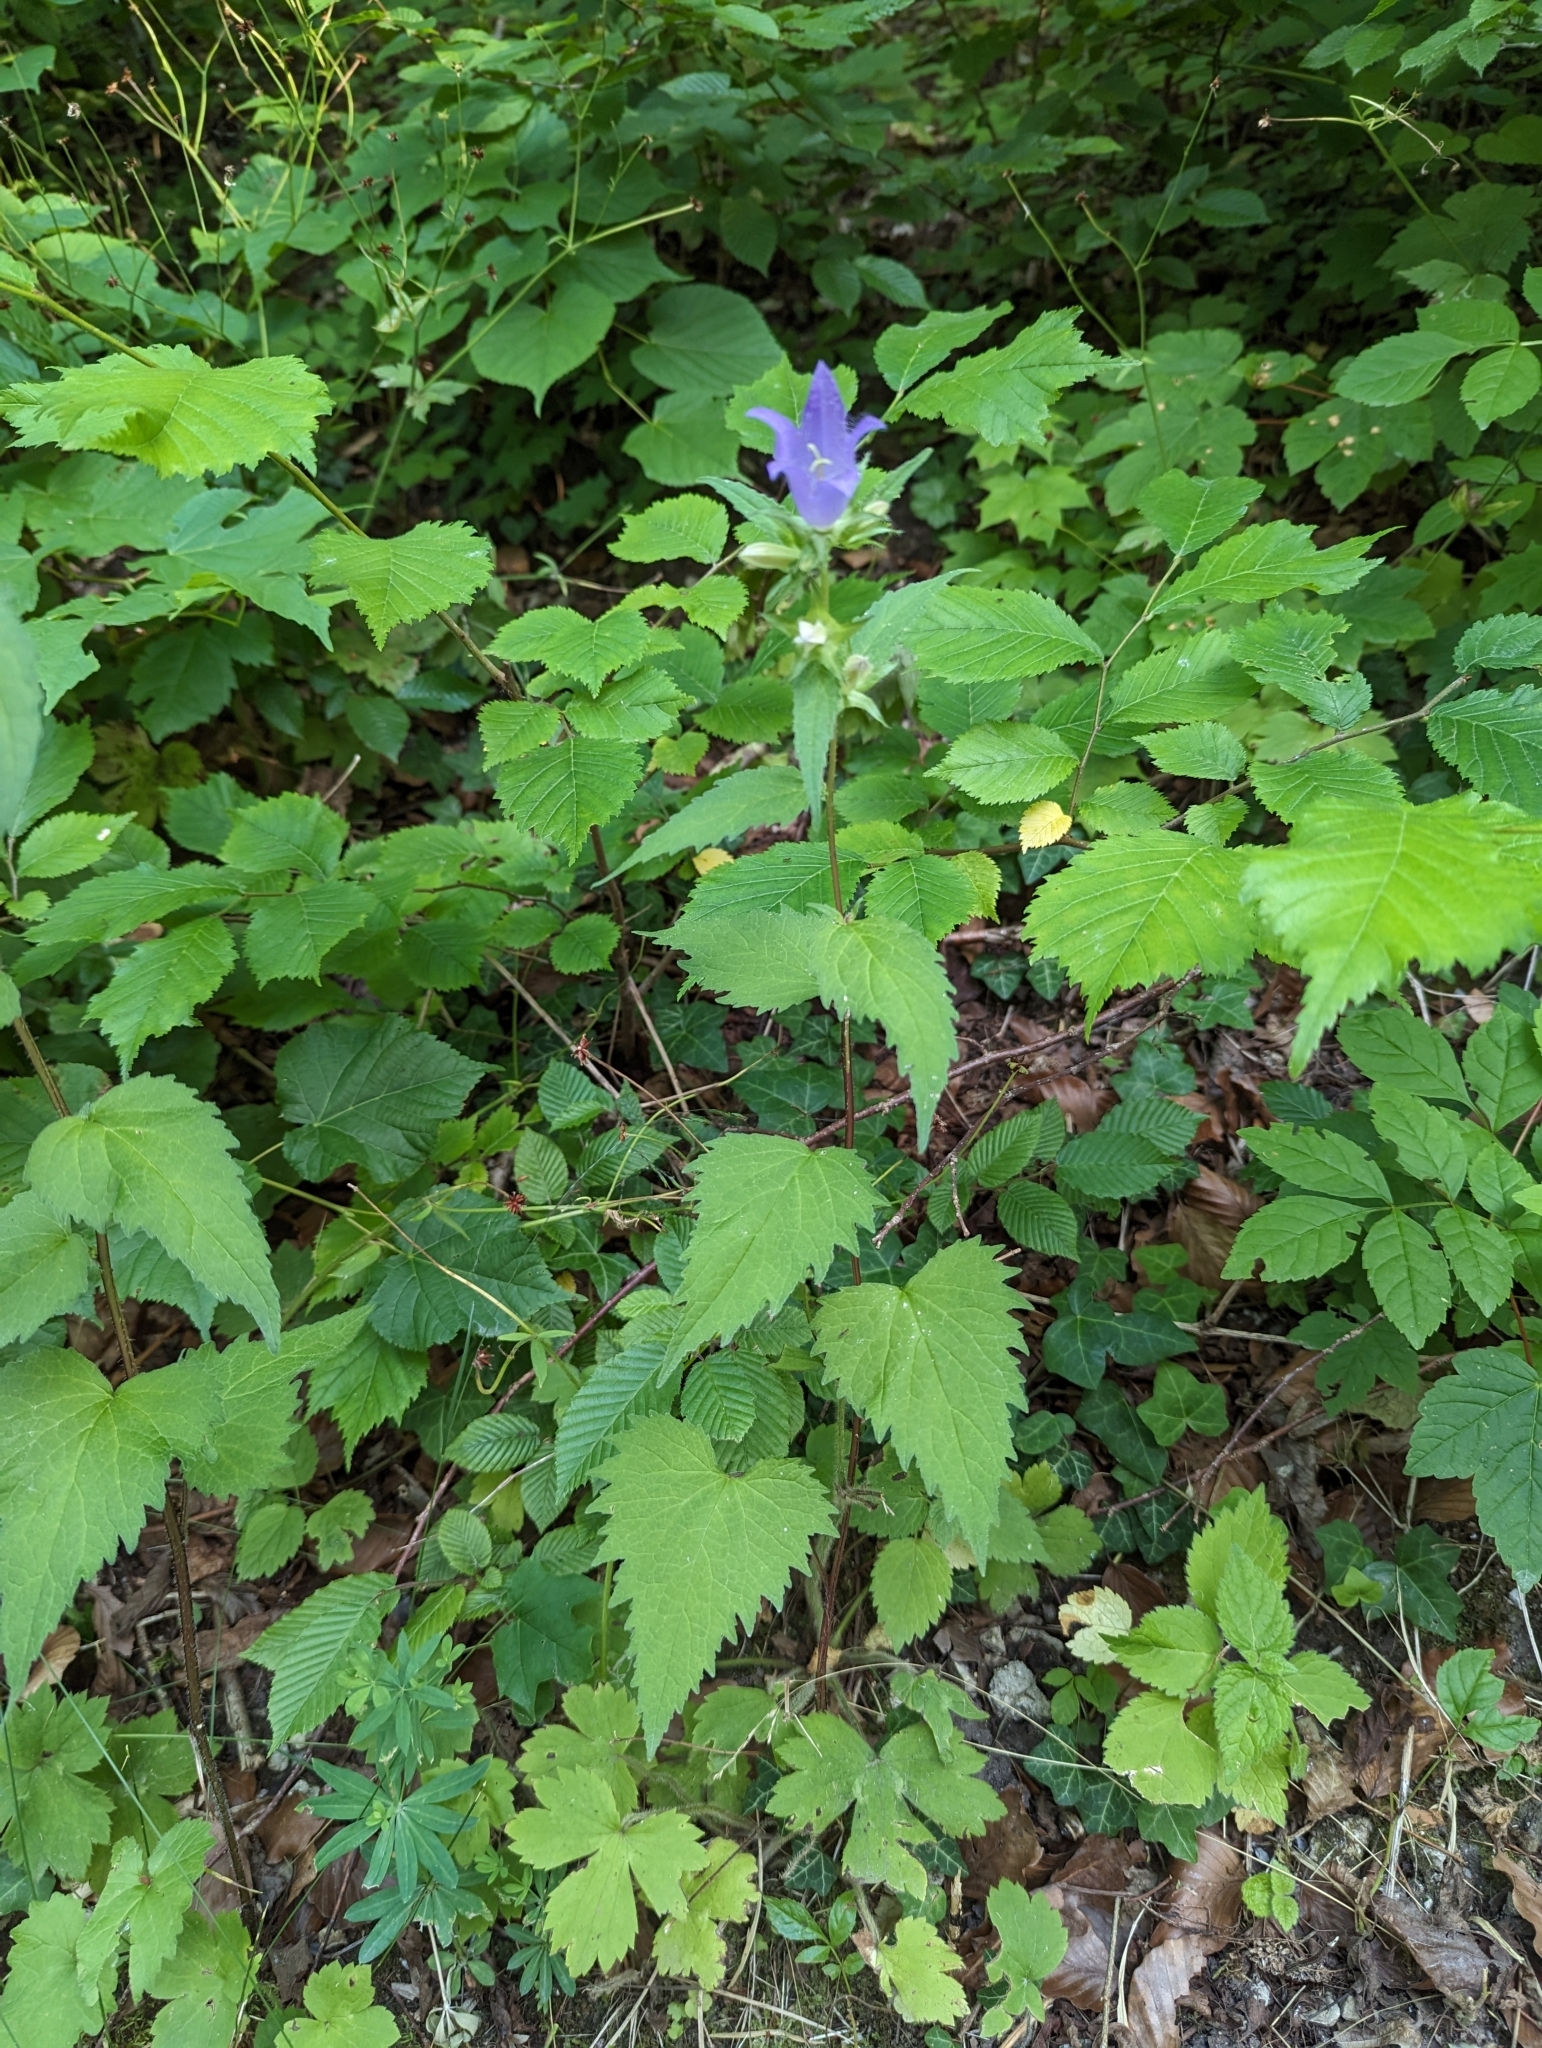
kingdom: Plantae
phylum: Tracheophyta
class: Magnoliopsida
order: Asterales
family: Campanulaceae
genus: Campanula
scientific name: Campanula trachelium
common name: Nettle-leaved bellflower
